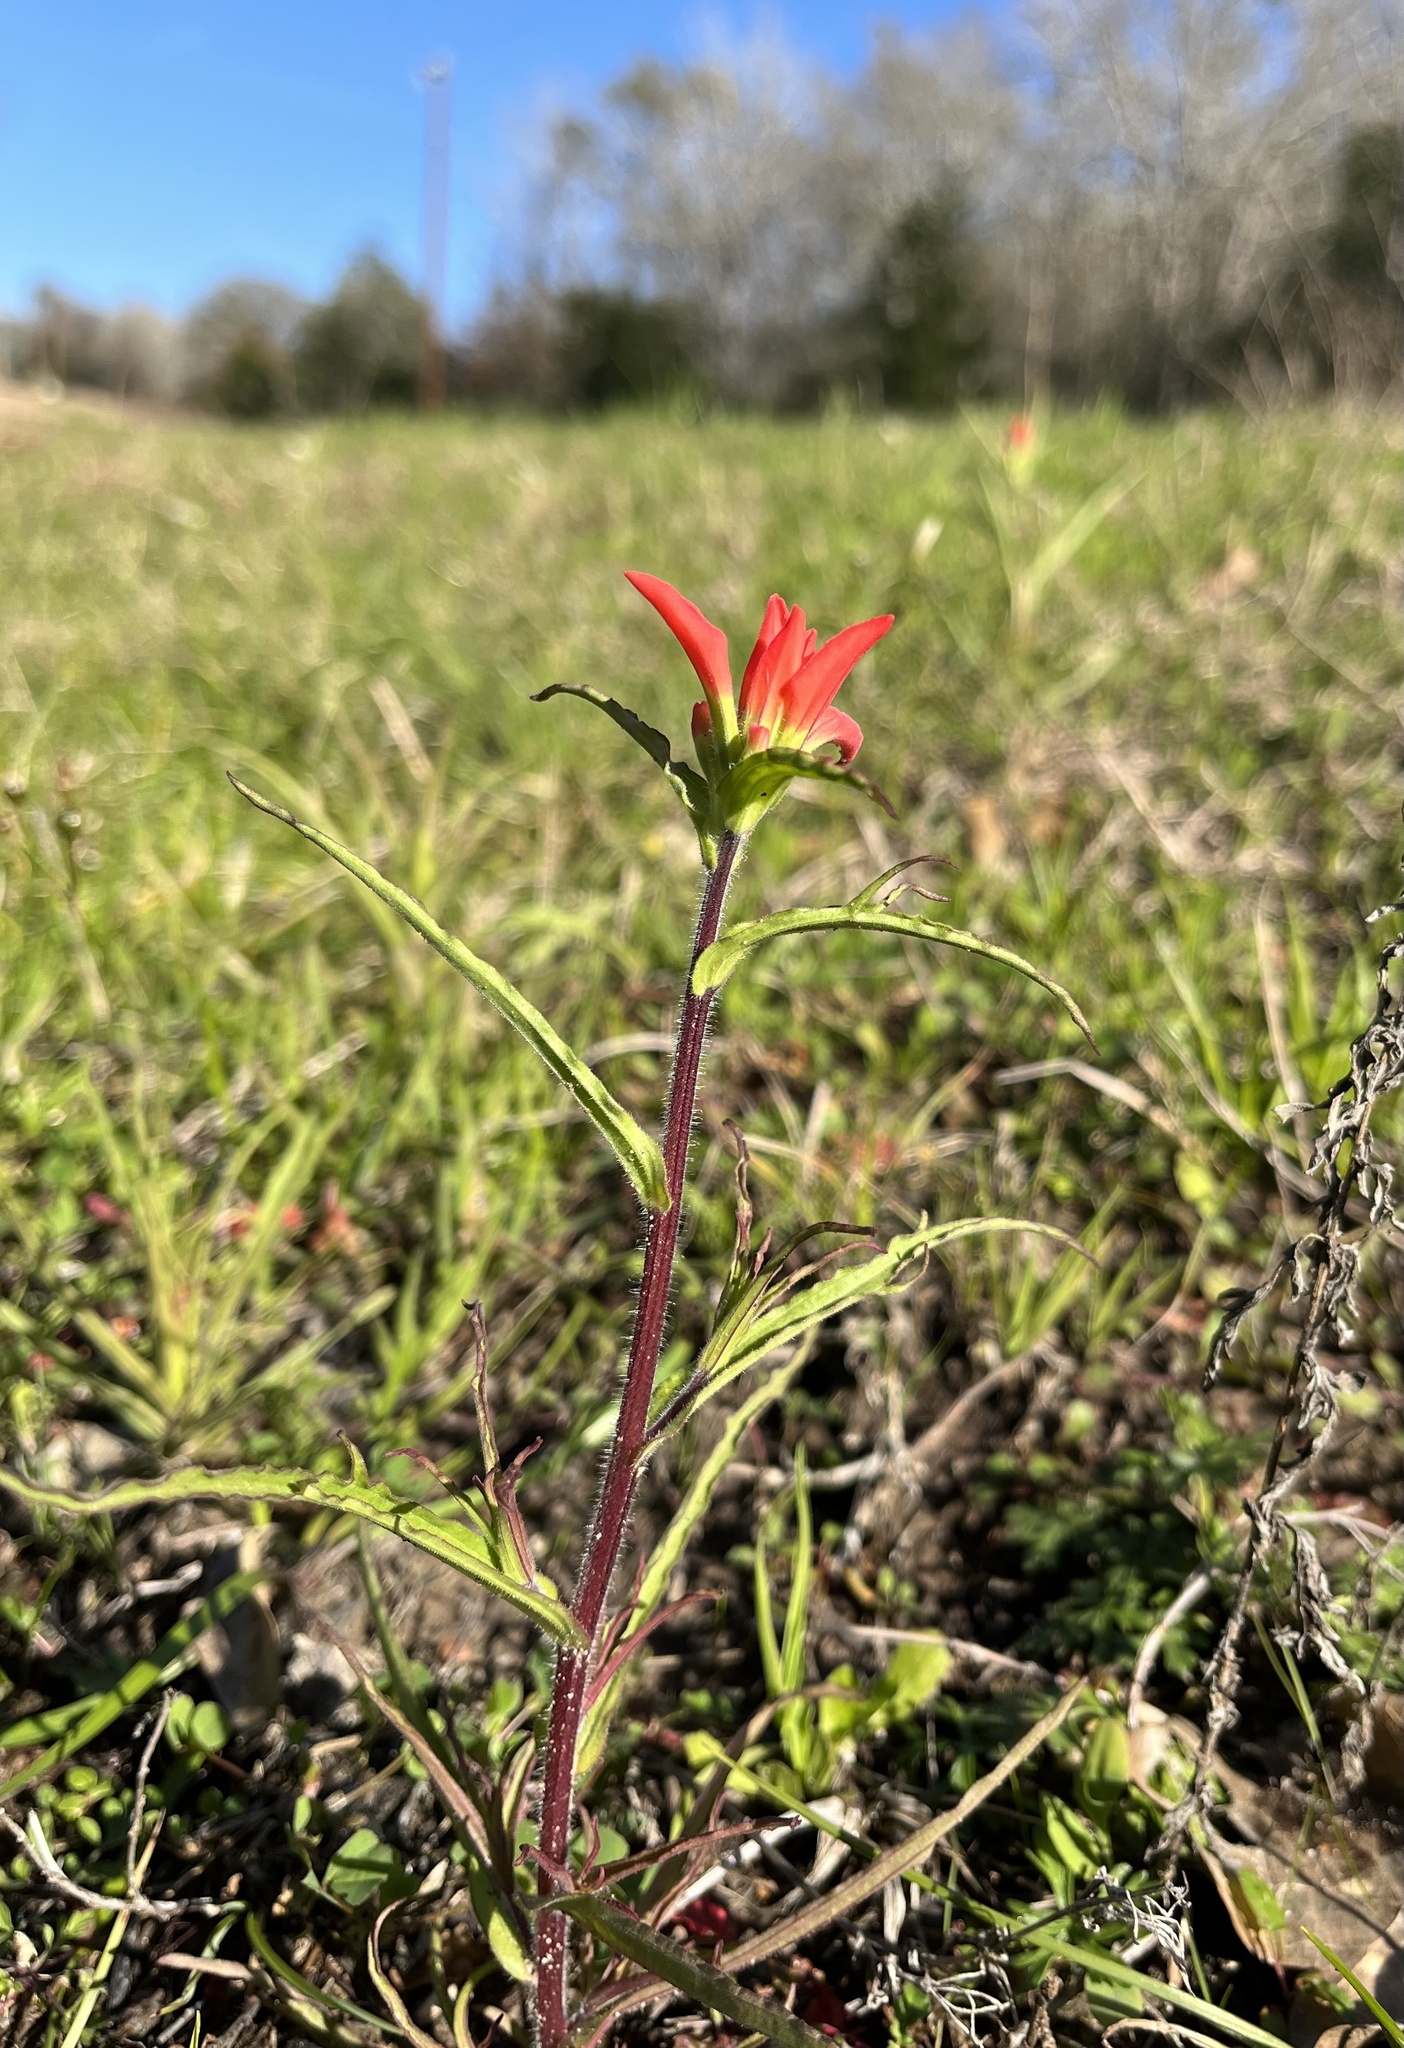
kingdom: Plantae
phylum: Tracheophyta
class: Magnoliopsida
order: Lamiales
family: Orobanchaceae
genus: Castilleja
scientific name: Castilleja indivisa
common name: Texas paintbrush
